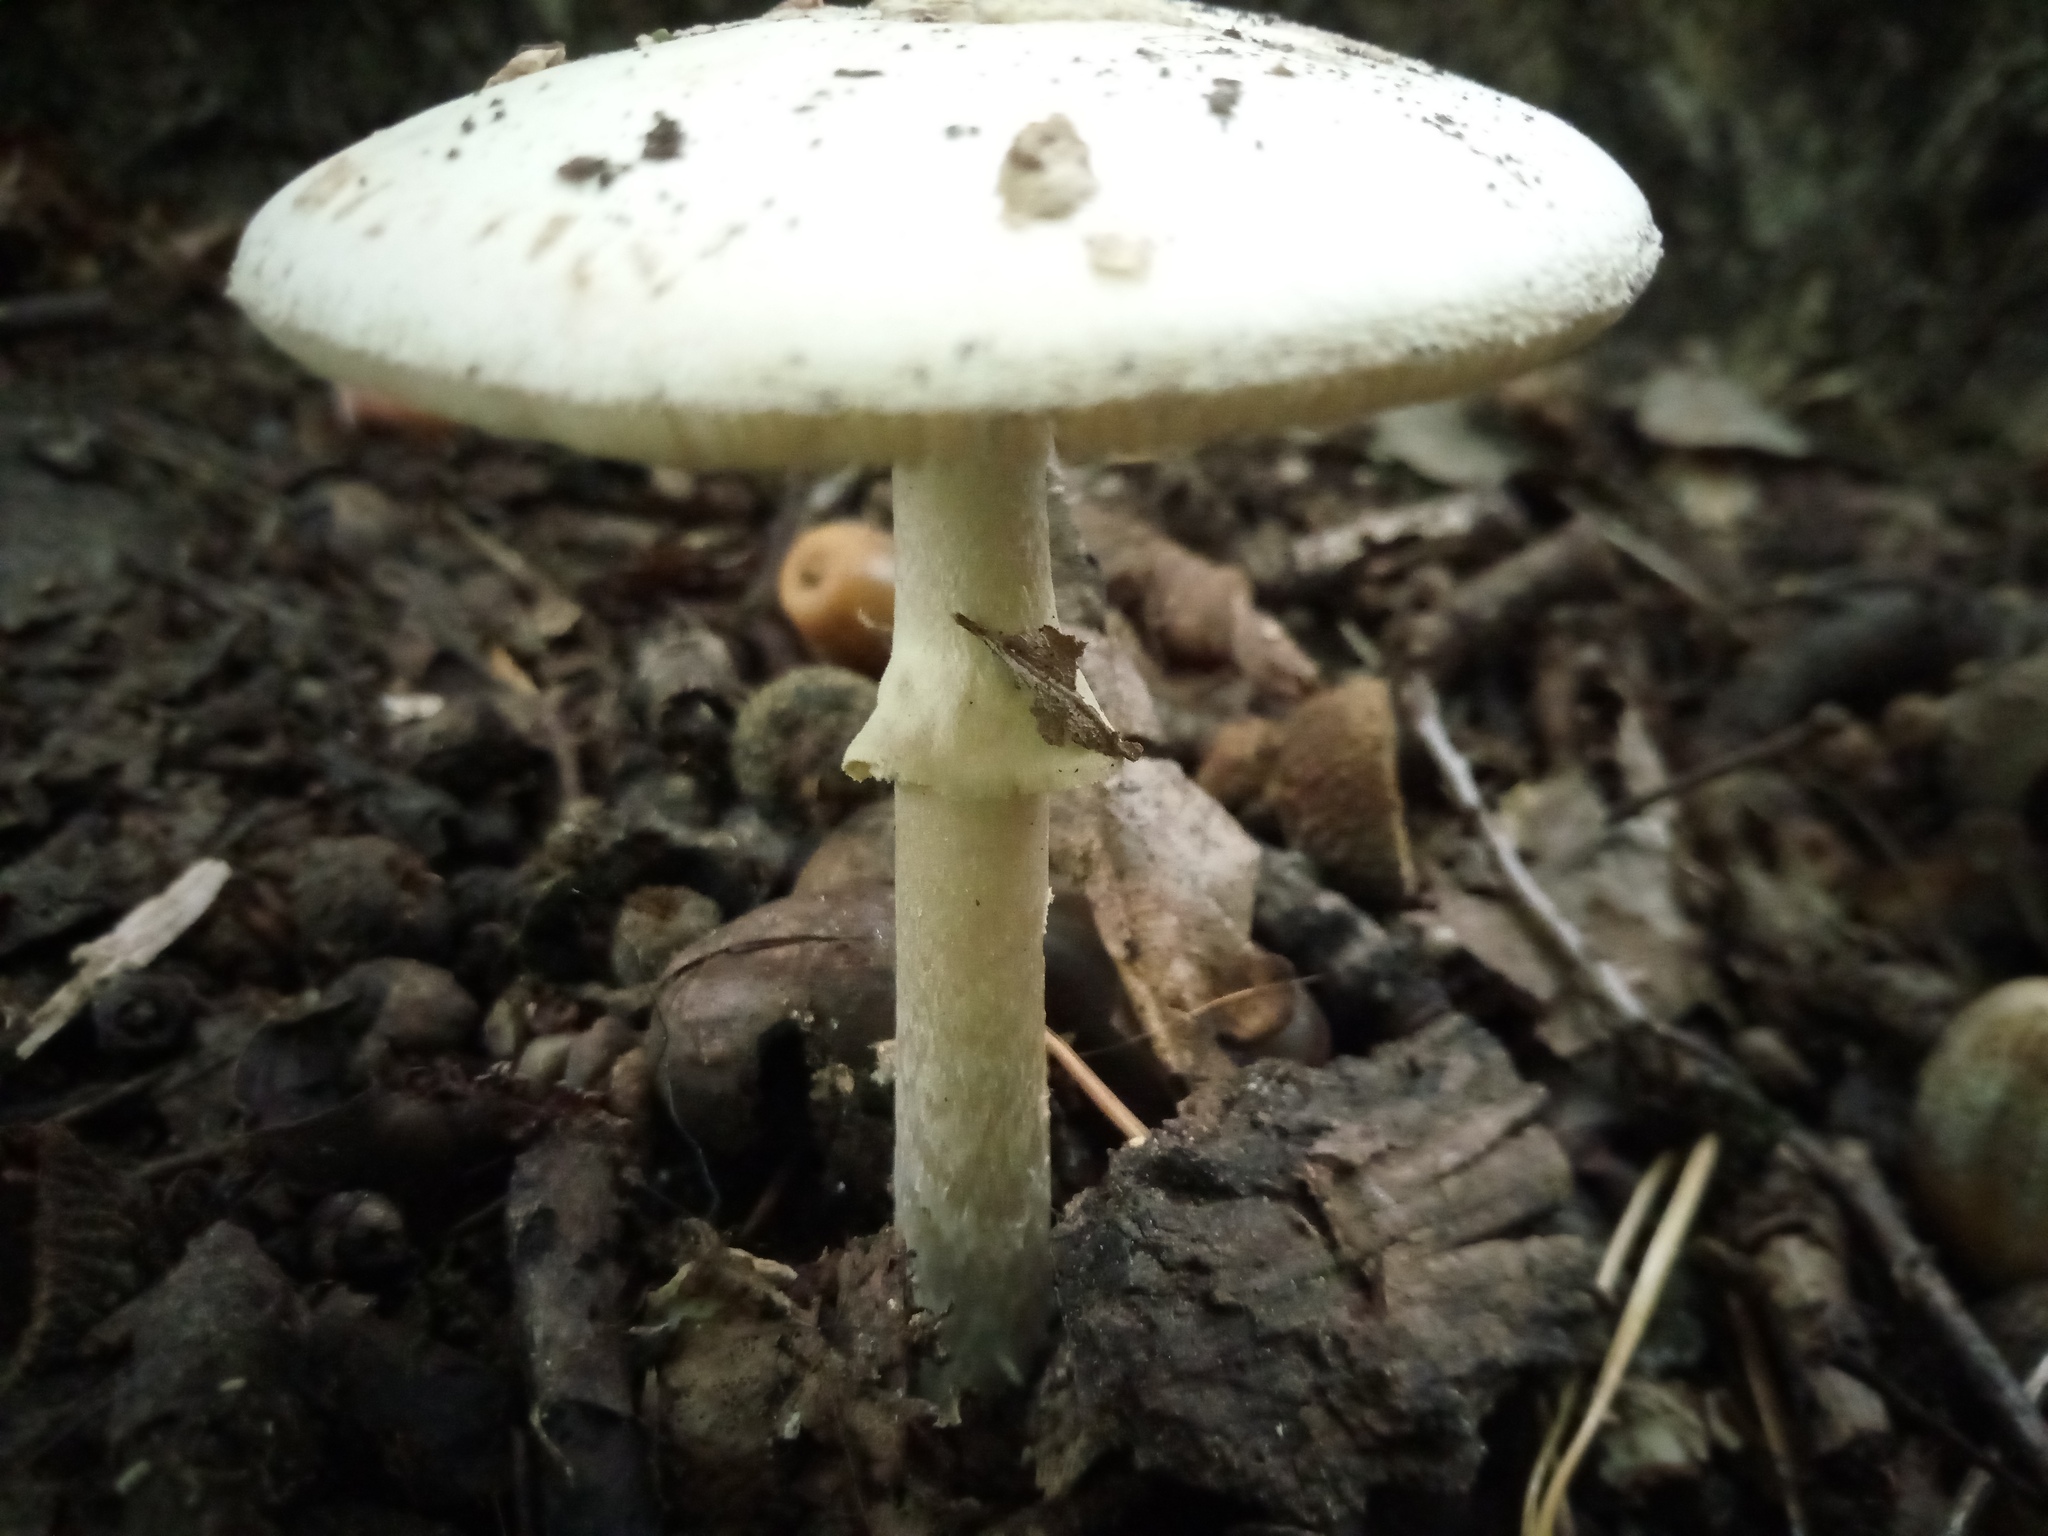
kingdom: Fungi
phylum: Basidiomycota
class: Agaricomycetes
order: Agaricales
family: Amanitaceae
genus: Amanita
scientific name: Amanita citrina
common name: False death-cap
